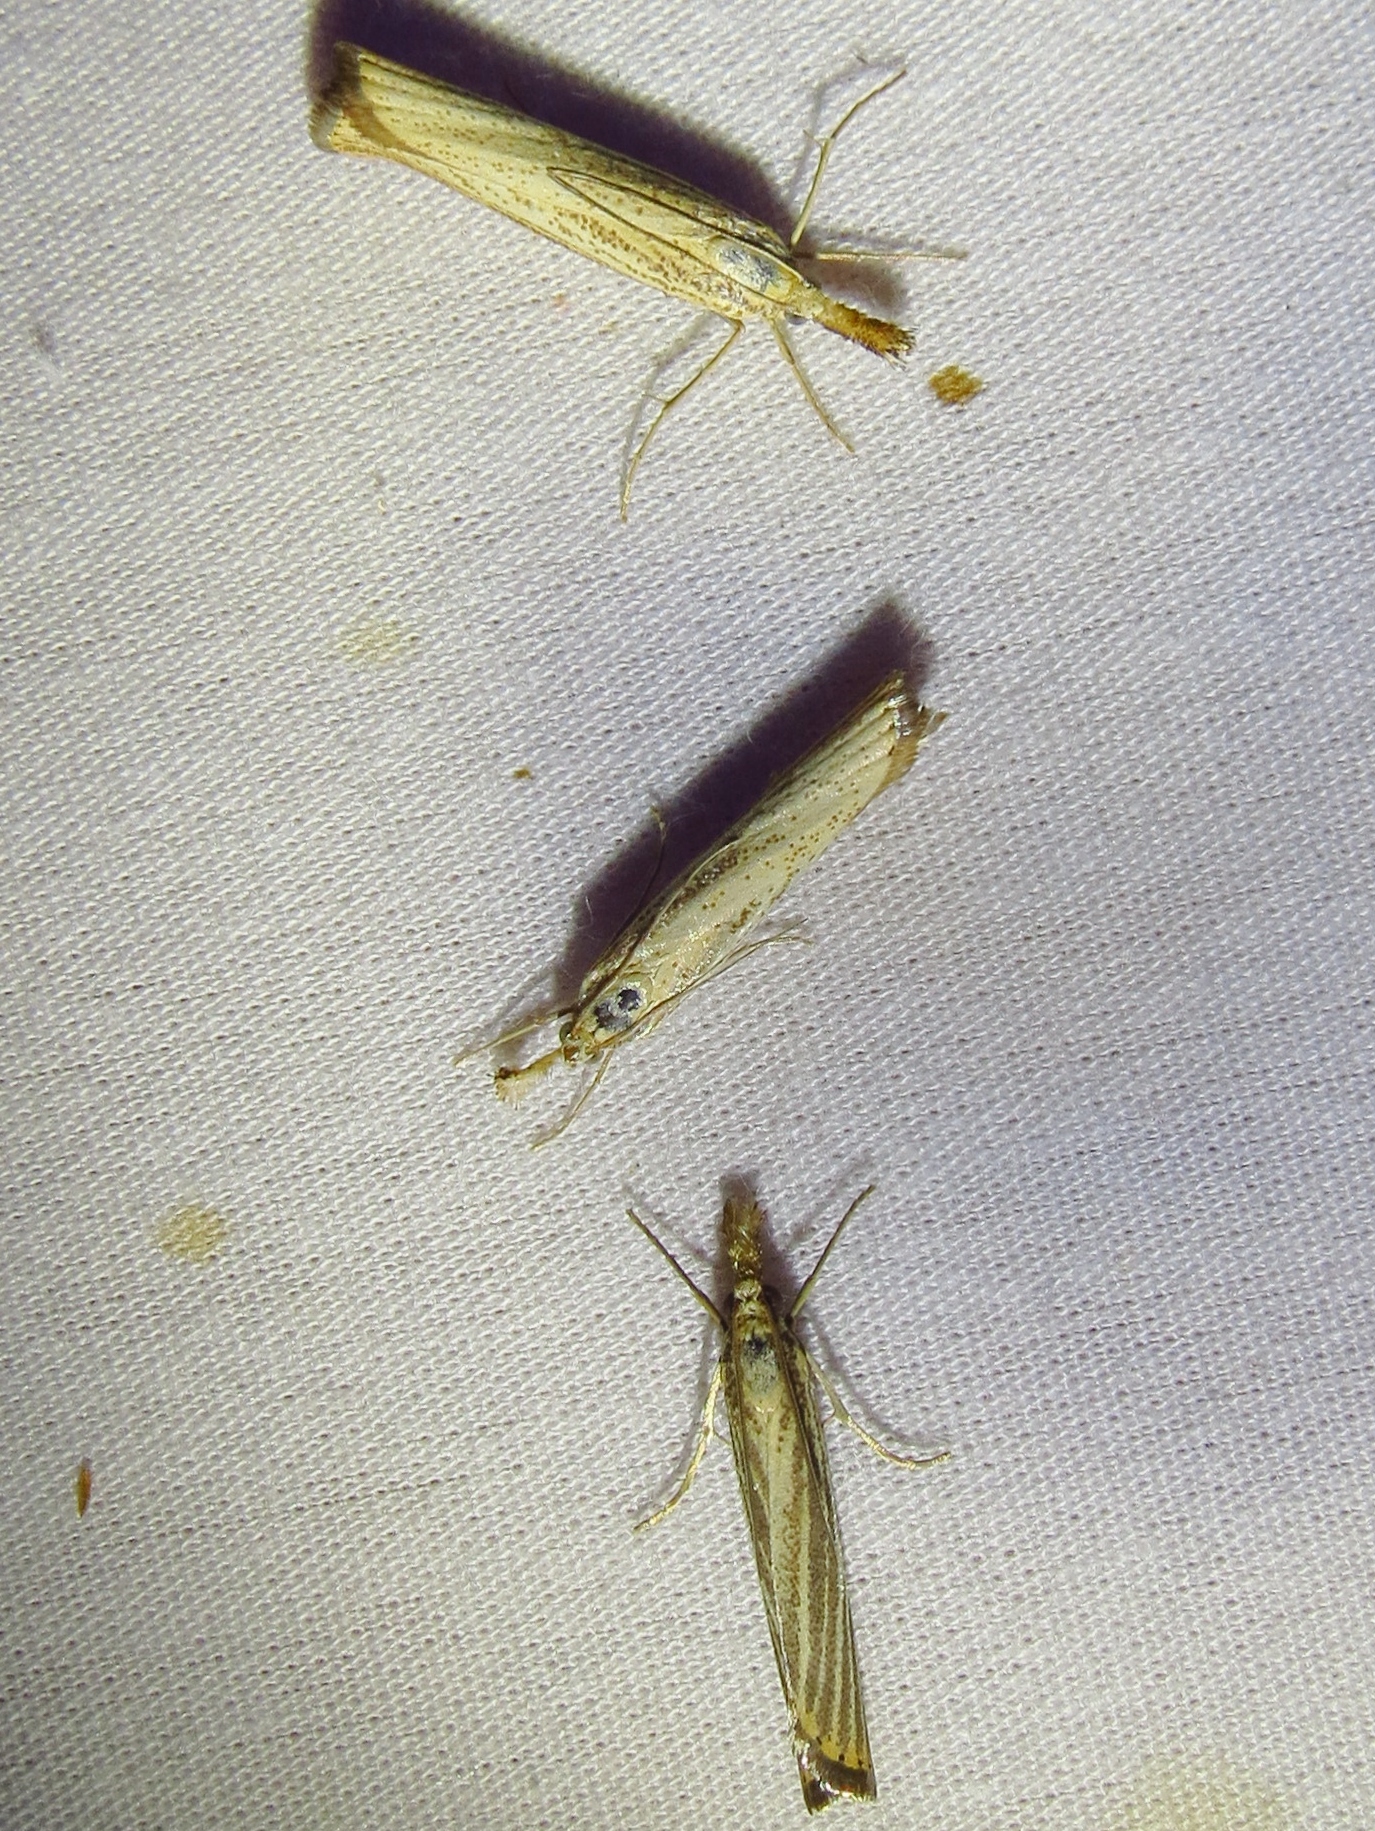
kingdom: Animalia
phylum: Arthropoda
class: Insecta
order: Lepidoptera
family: Crambidae
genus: Agriphila
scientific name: Agriphila vulgivagellus
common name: Vagabond crambus moth
